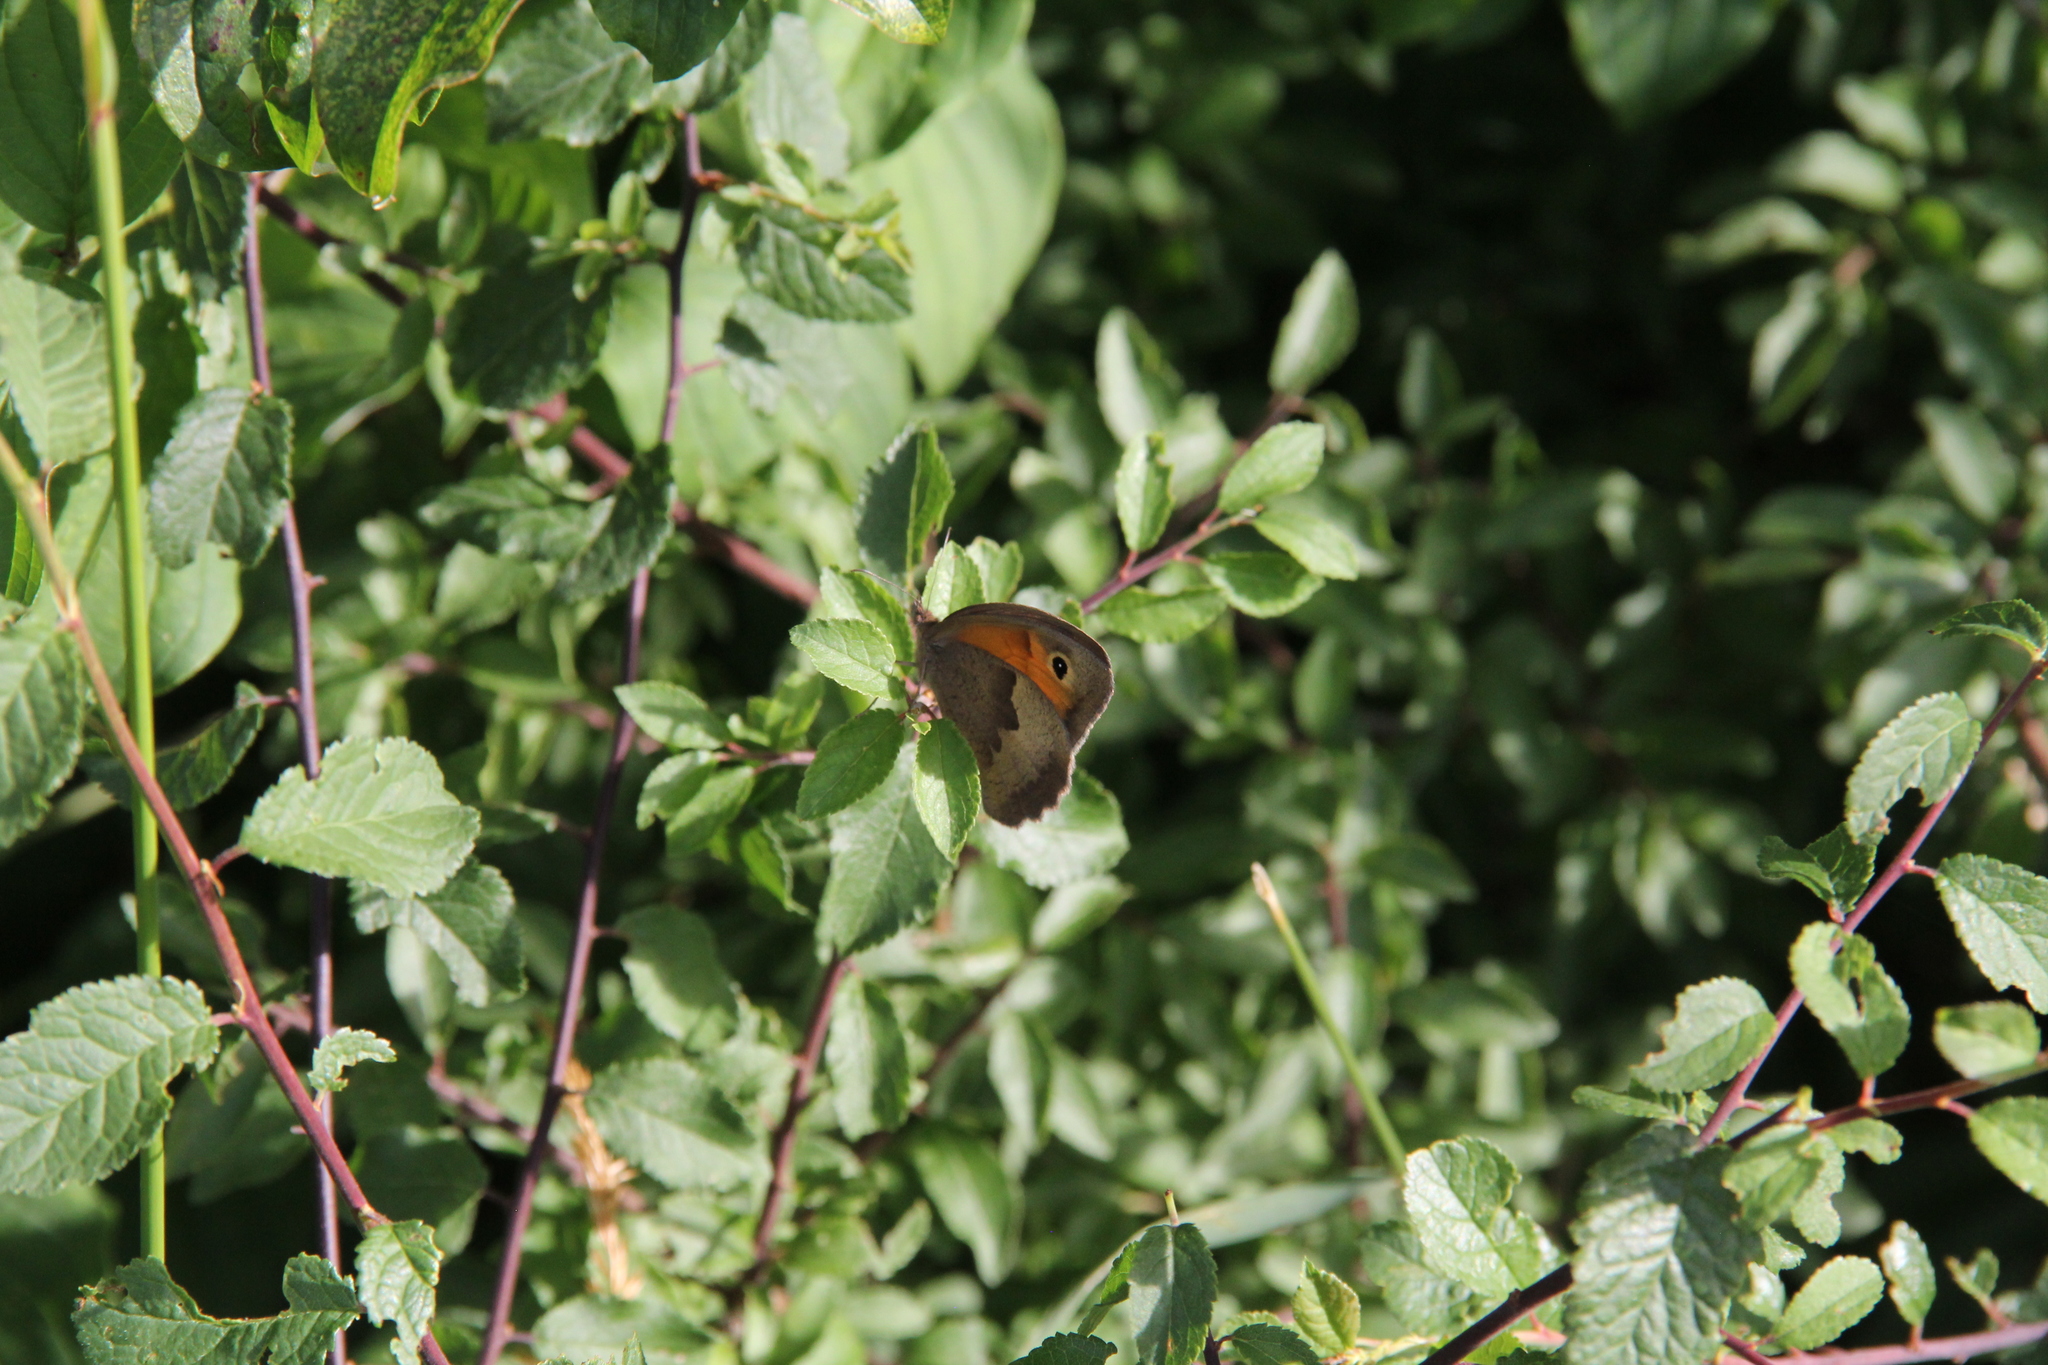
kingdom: Animalia
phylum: Arthropoda
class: Insecta
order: Lepidoptera
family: Nymphalidae
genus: Maniola
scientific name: Maniola jurtina
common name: Meadow brown
